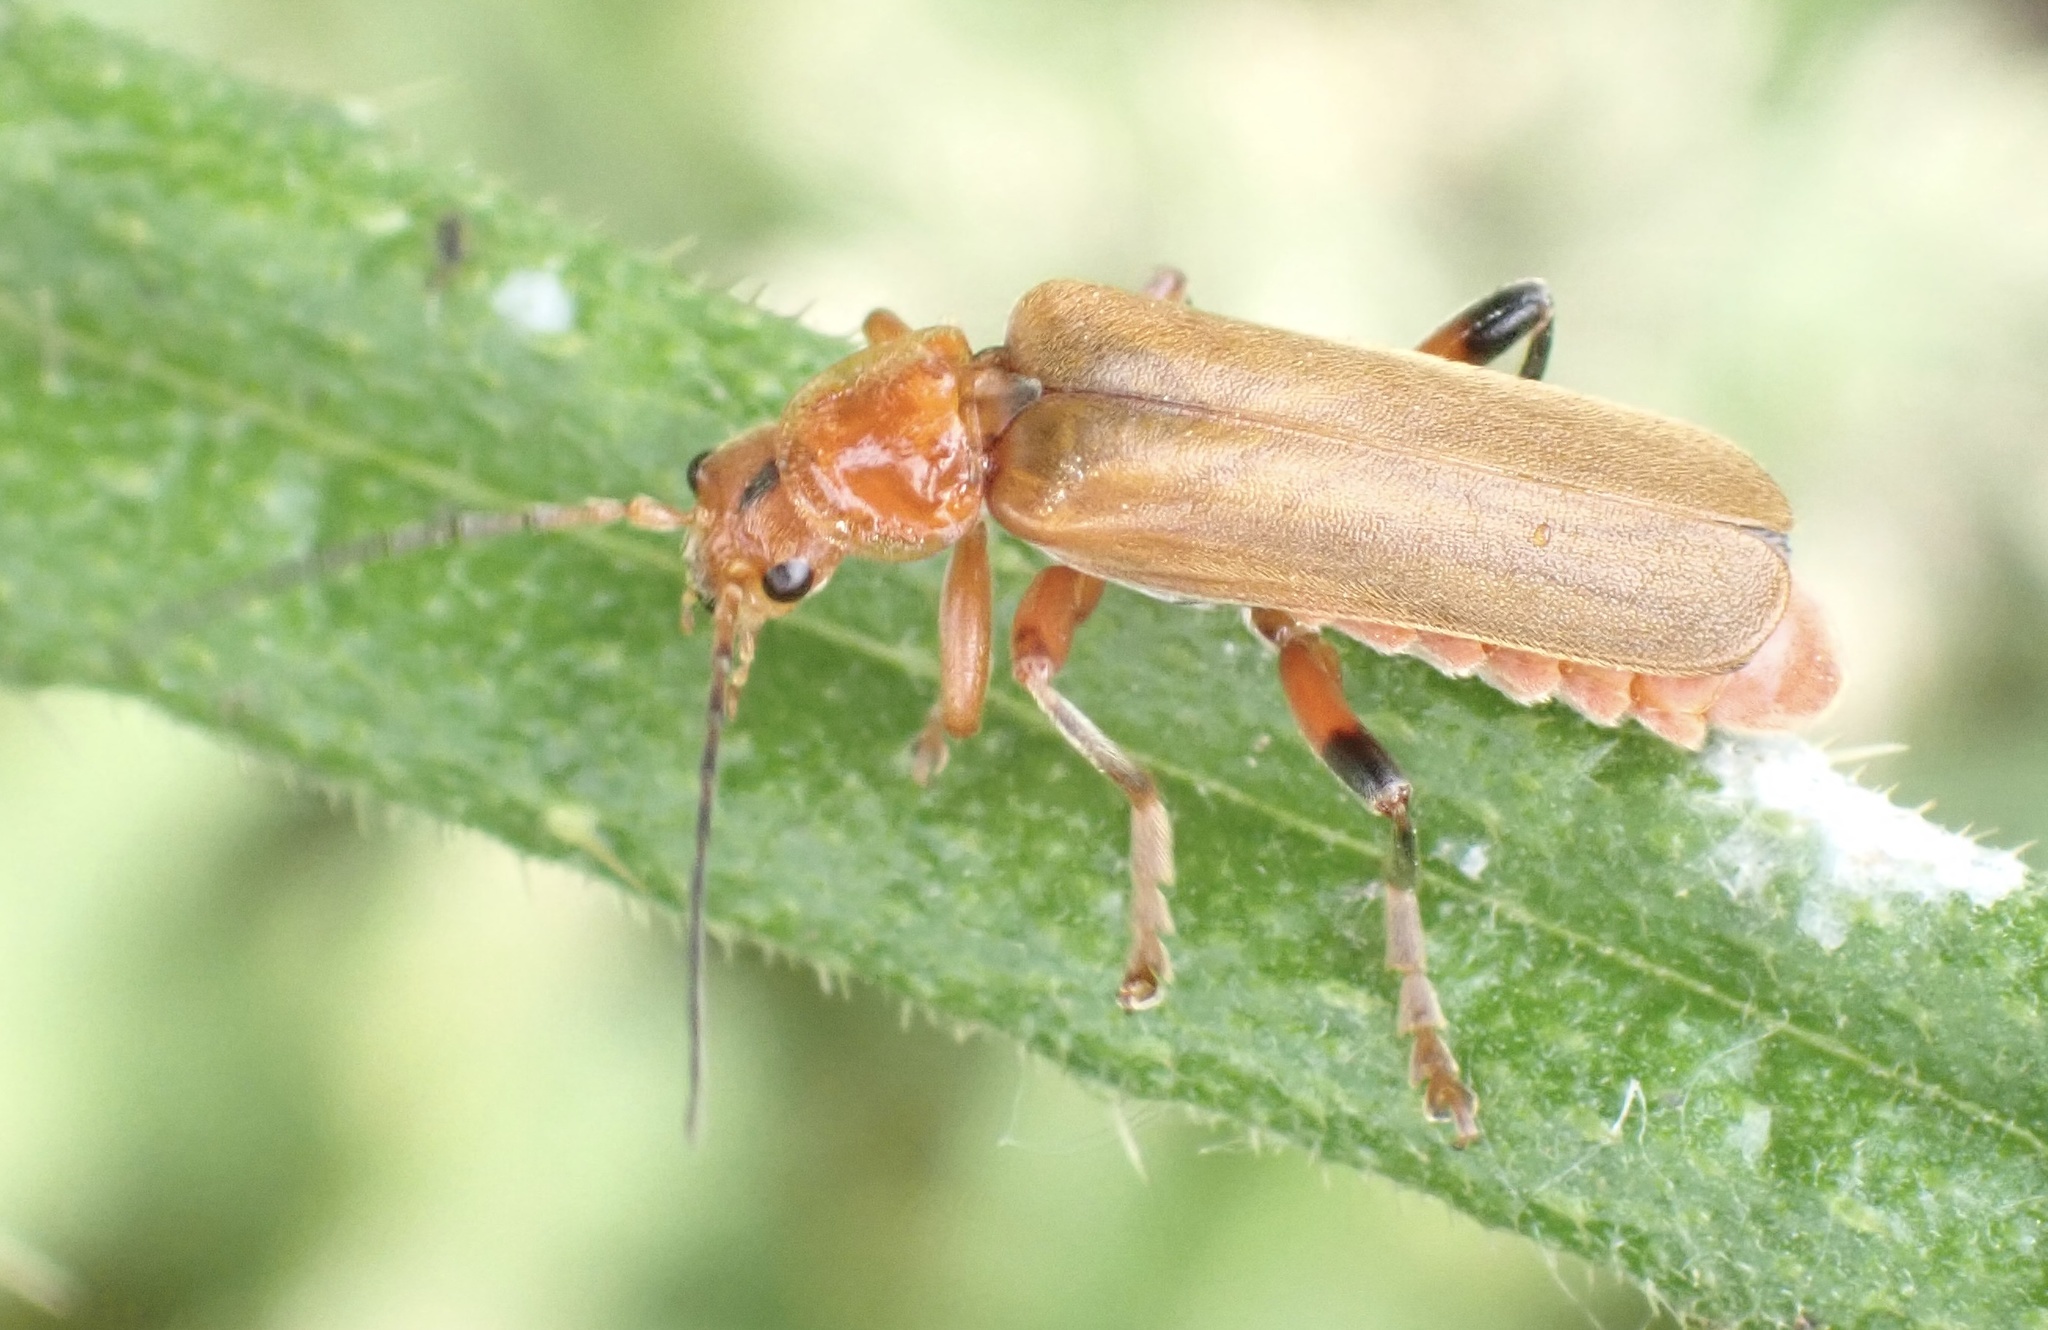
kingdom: Animalia
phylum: Arthropoda
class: Insecta
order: Coleoptera
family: Cantharidae
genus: Cantharis
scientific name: Cantharis livida
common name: Livid soldier beetle
